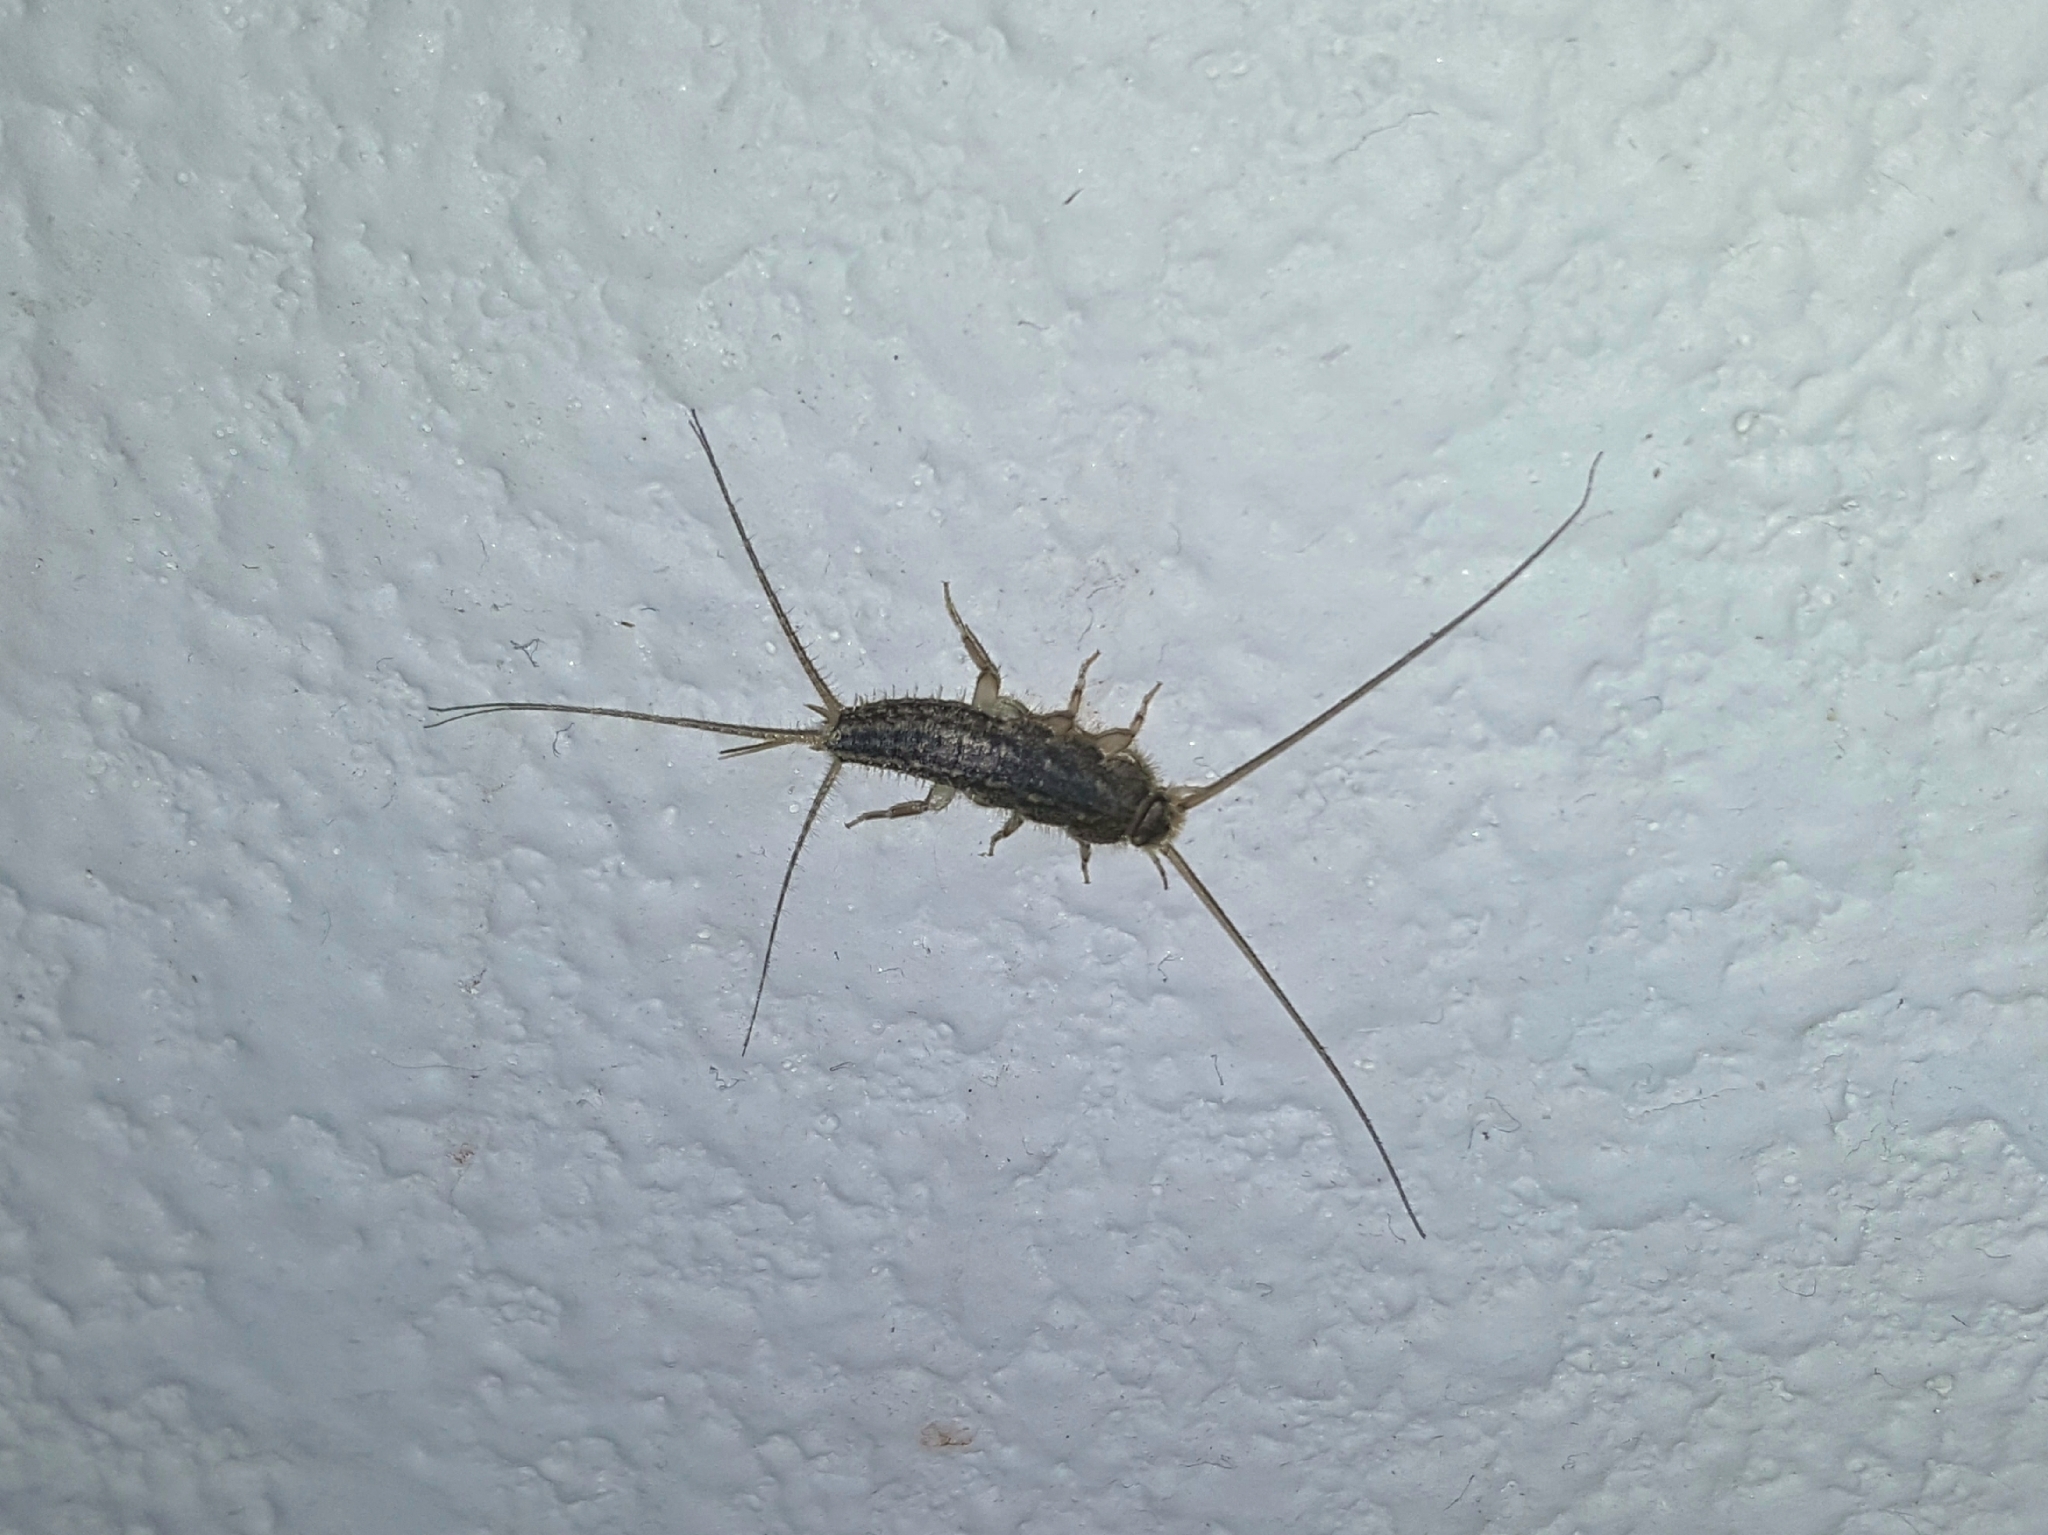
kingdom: Animalia
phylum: Arthropoda
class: Insecta
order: Zygentoma
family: Lepismatidae
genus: Ctenolepisma
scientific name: Ctenolepisma lineata
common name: Four-lined silverfish
